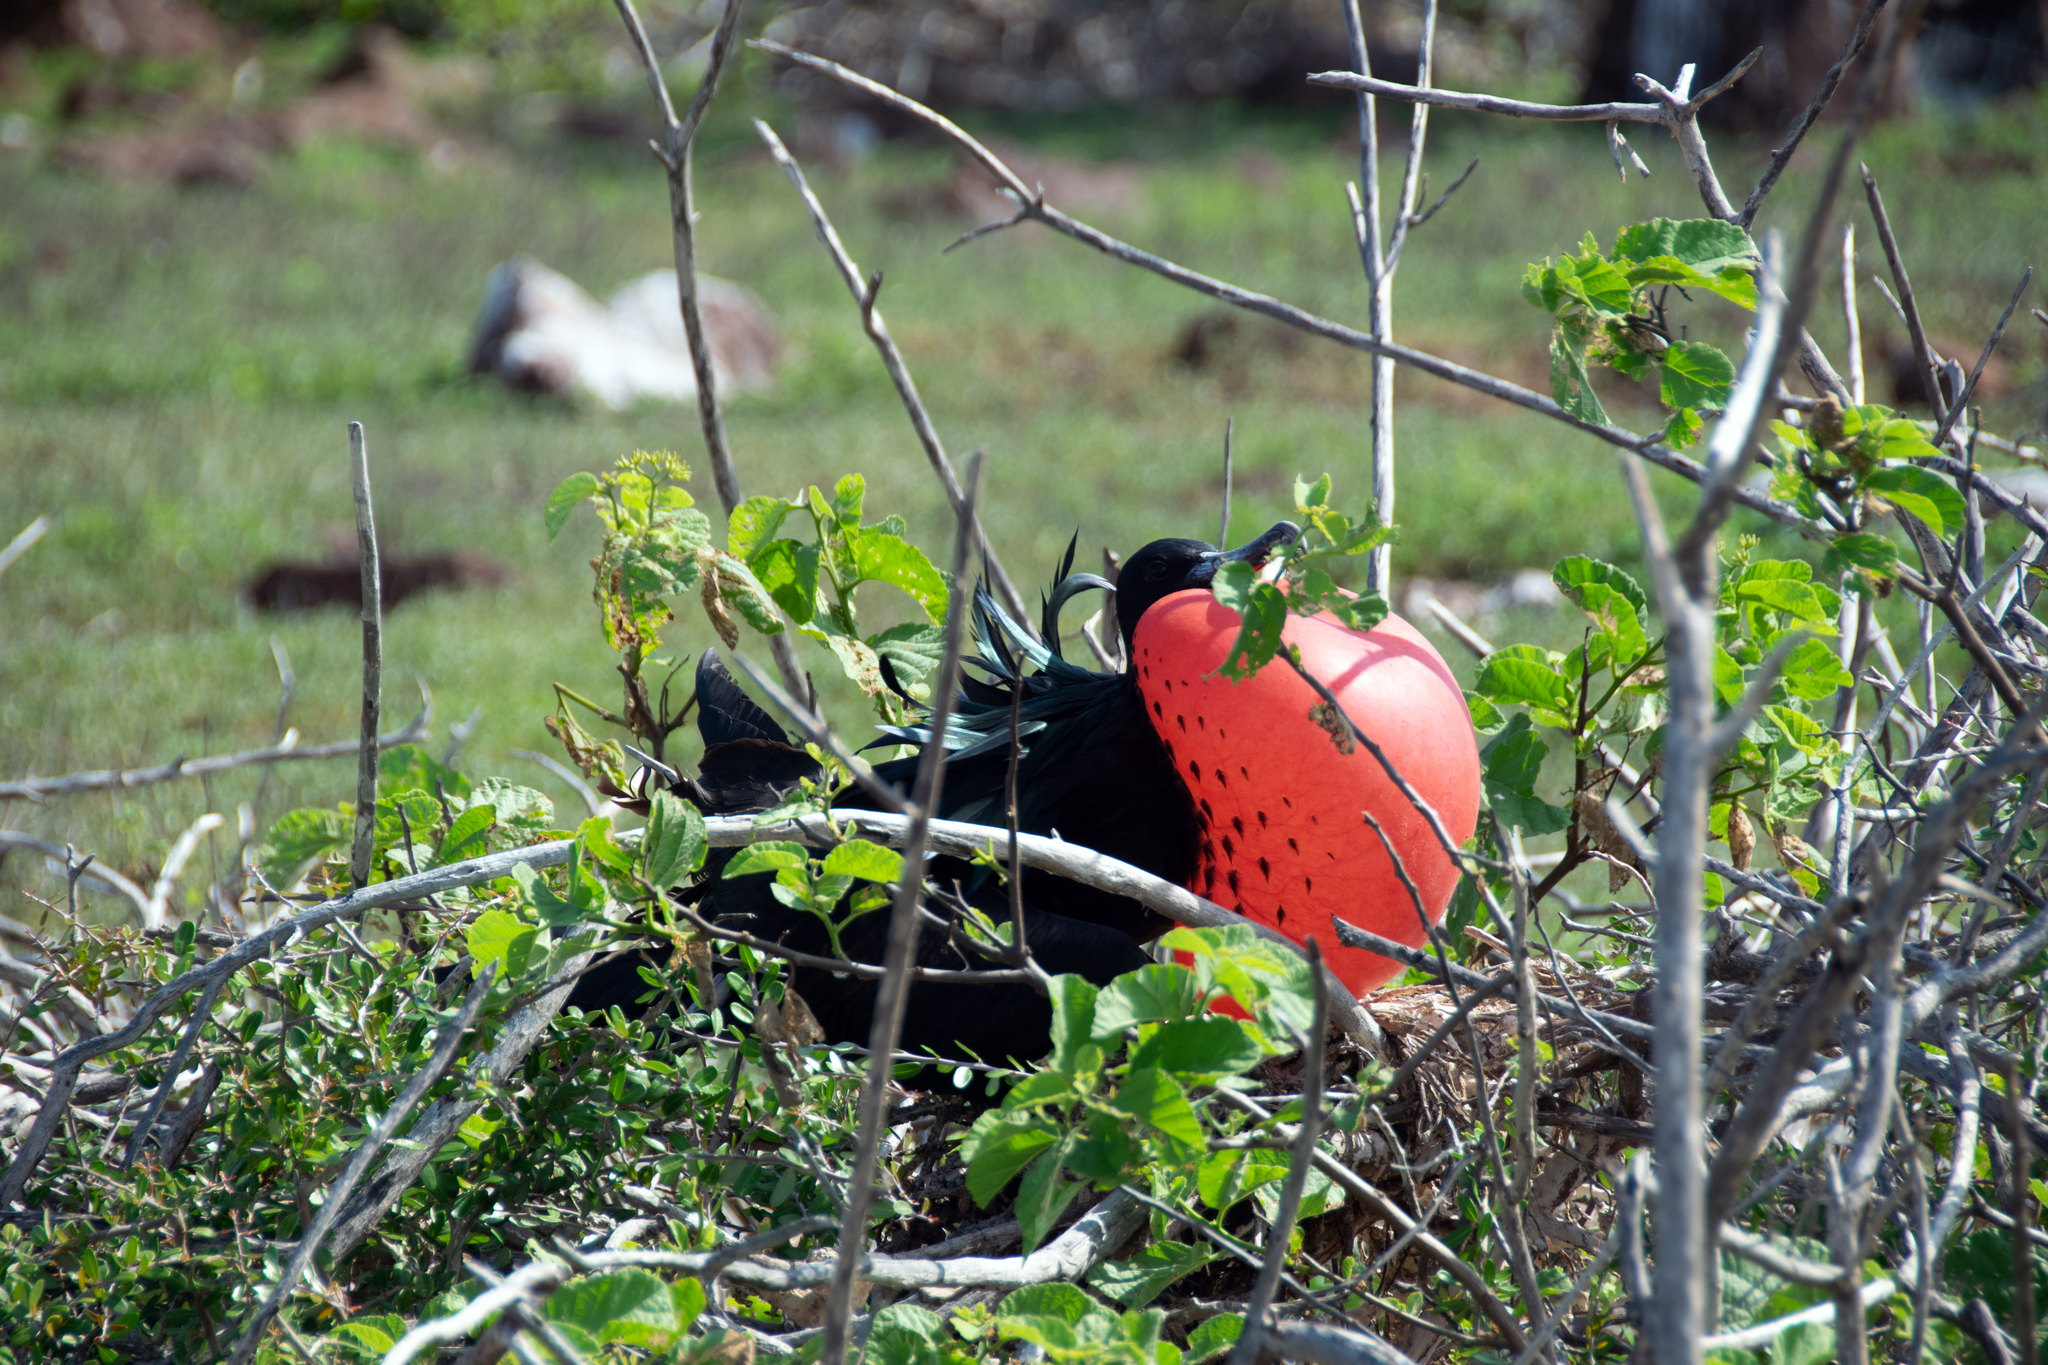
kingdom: Animalia
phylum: Chordata
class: Aves
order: Suliformes
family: Fregatidae
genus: Fregata
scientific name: Fregata minor
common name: Great frigatebird
